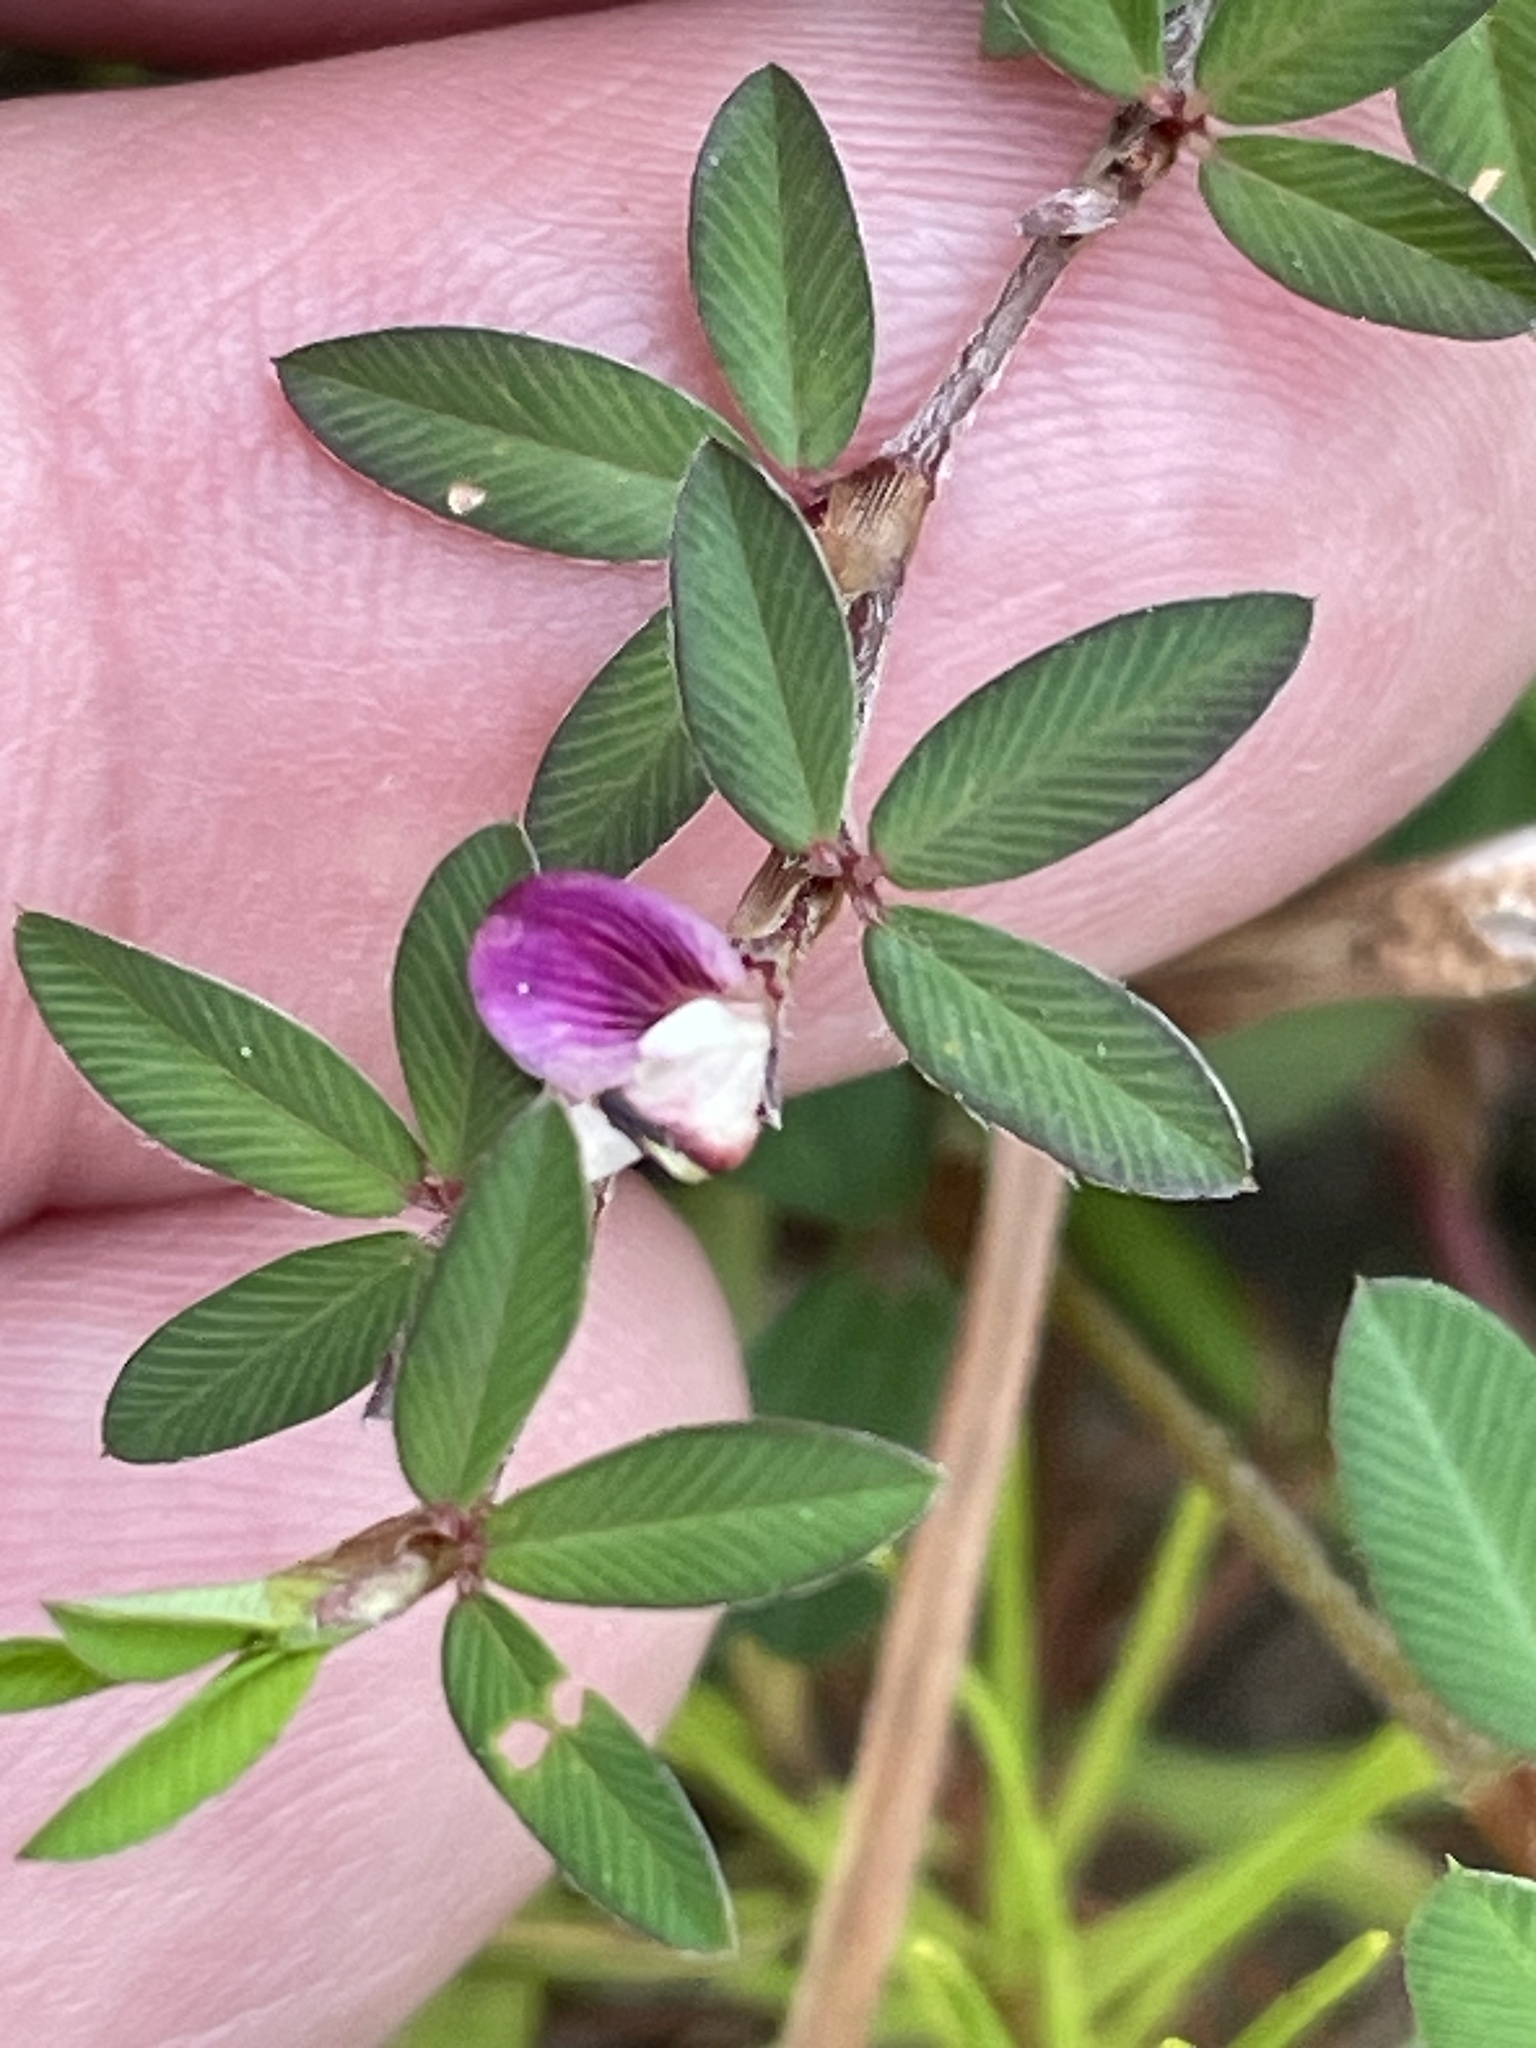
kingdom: Plantae
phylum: Tracheophyta
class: Magnoliopsida
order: Fabales
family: Fabaceae
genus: Kummerowia
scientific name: Kummerowia striata
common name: Japanese clover
